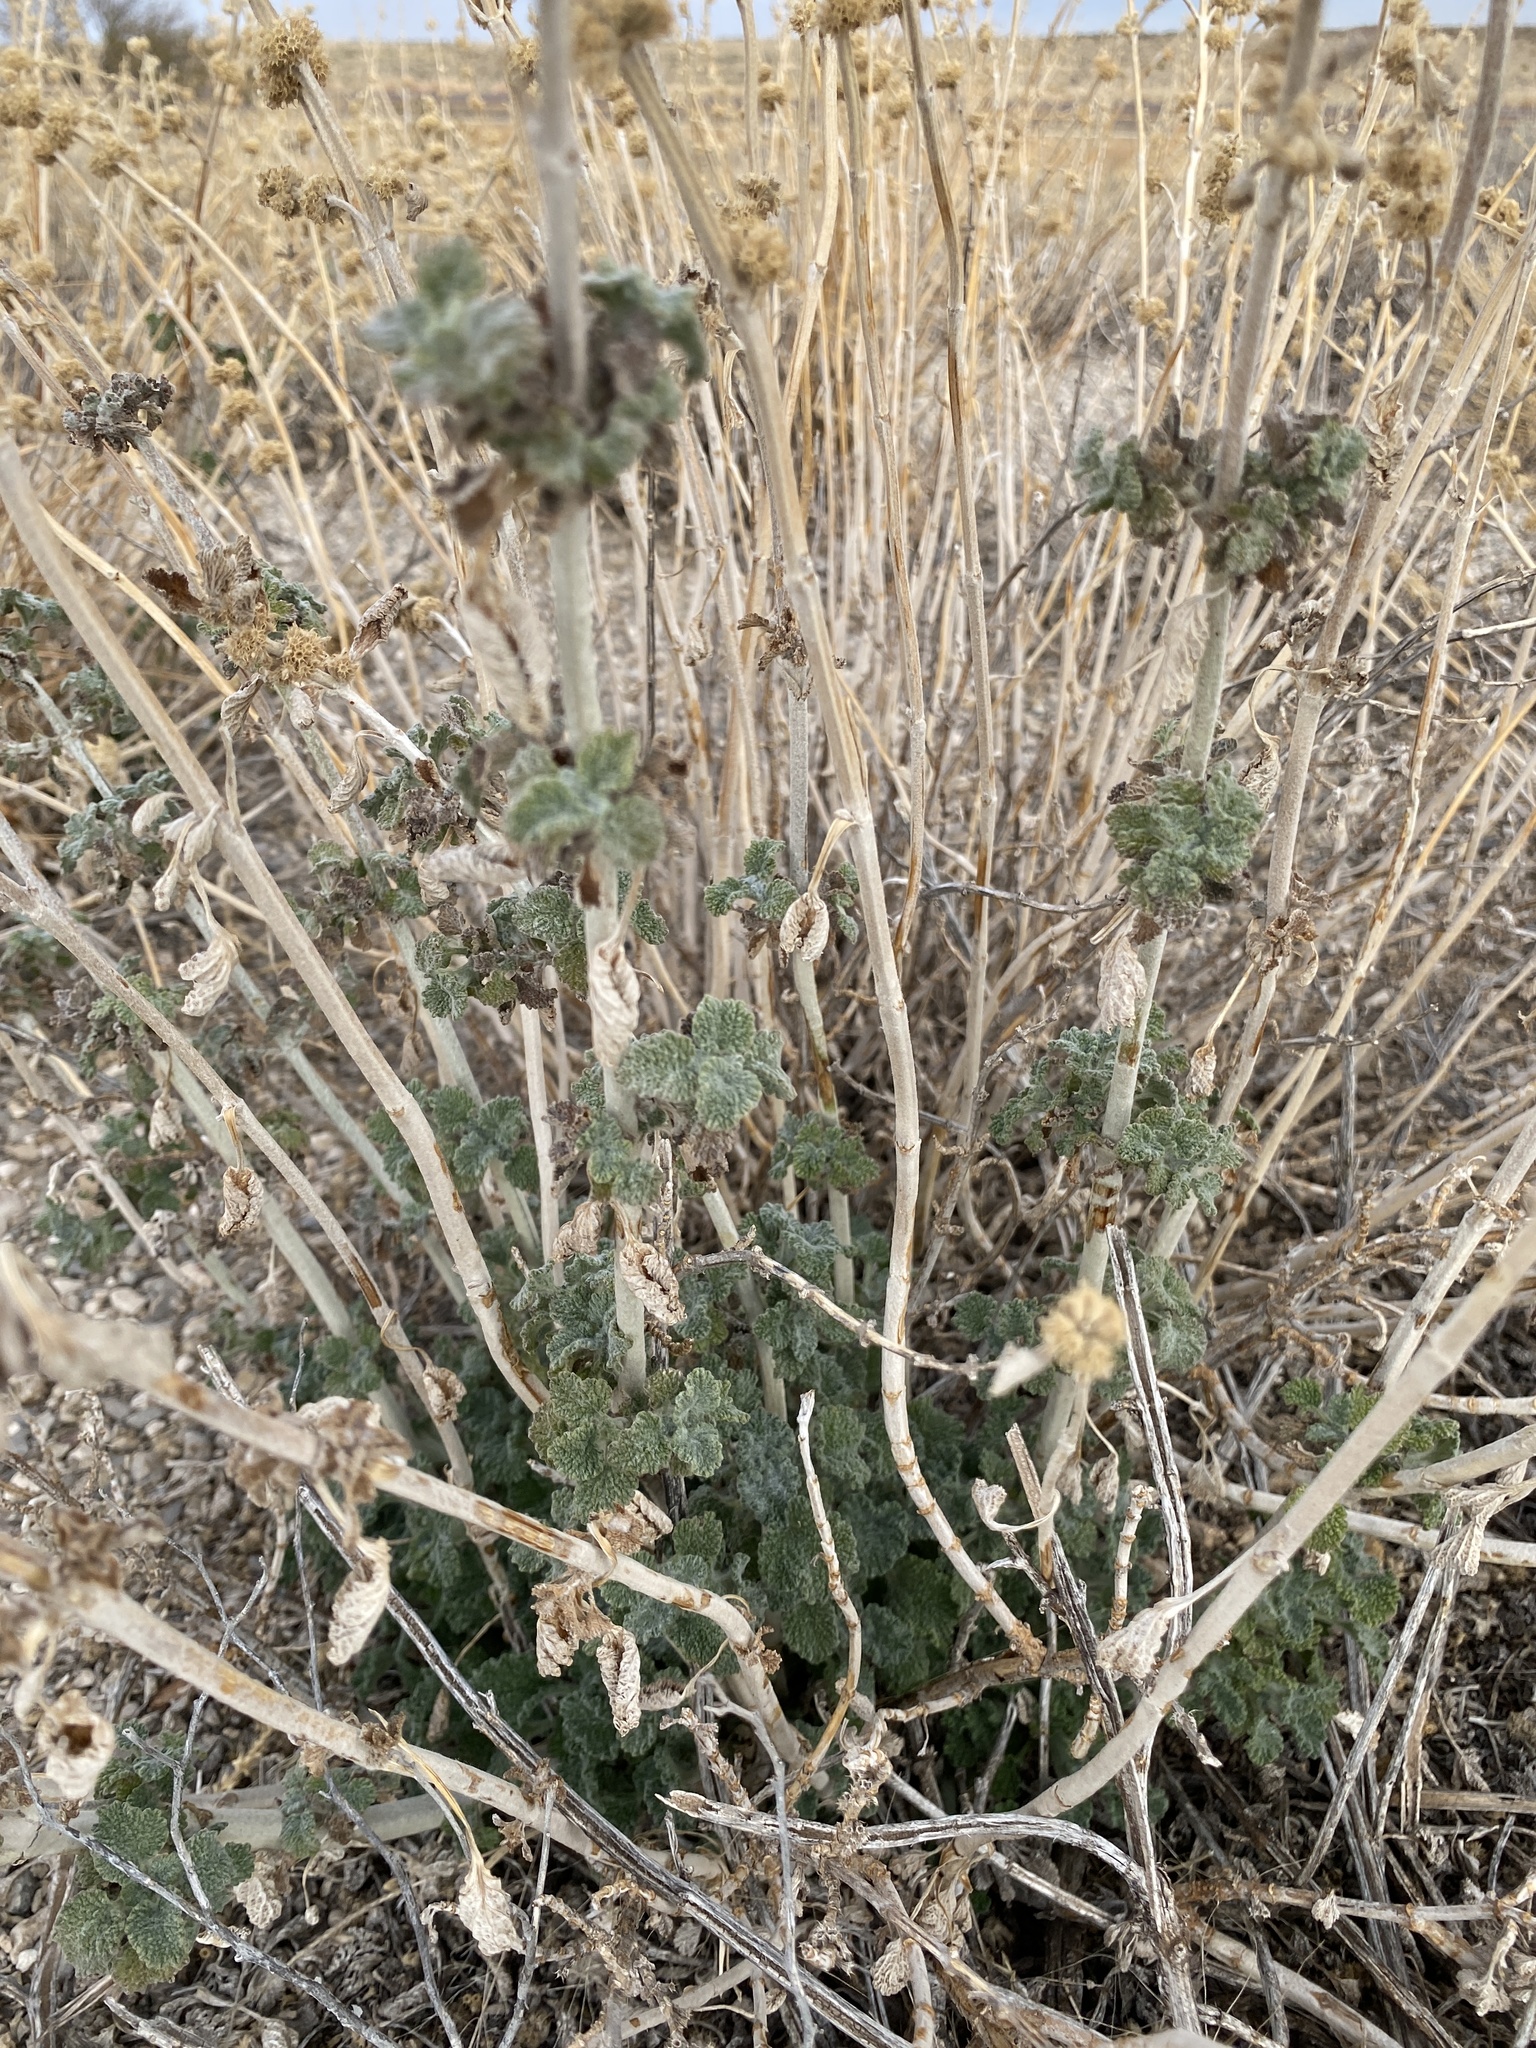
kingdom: Plantae
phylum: Tracheophyta
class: Magnoliopsida
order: Lamiales
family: Lamiaceae
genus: Marrubium
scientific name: Marrubium vulgare
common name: Horehound
